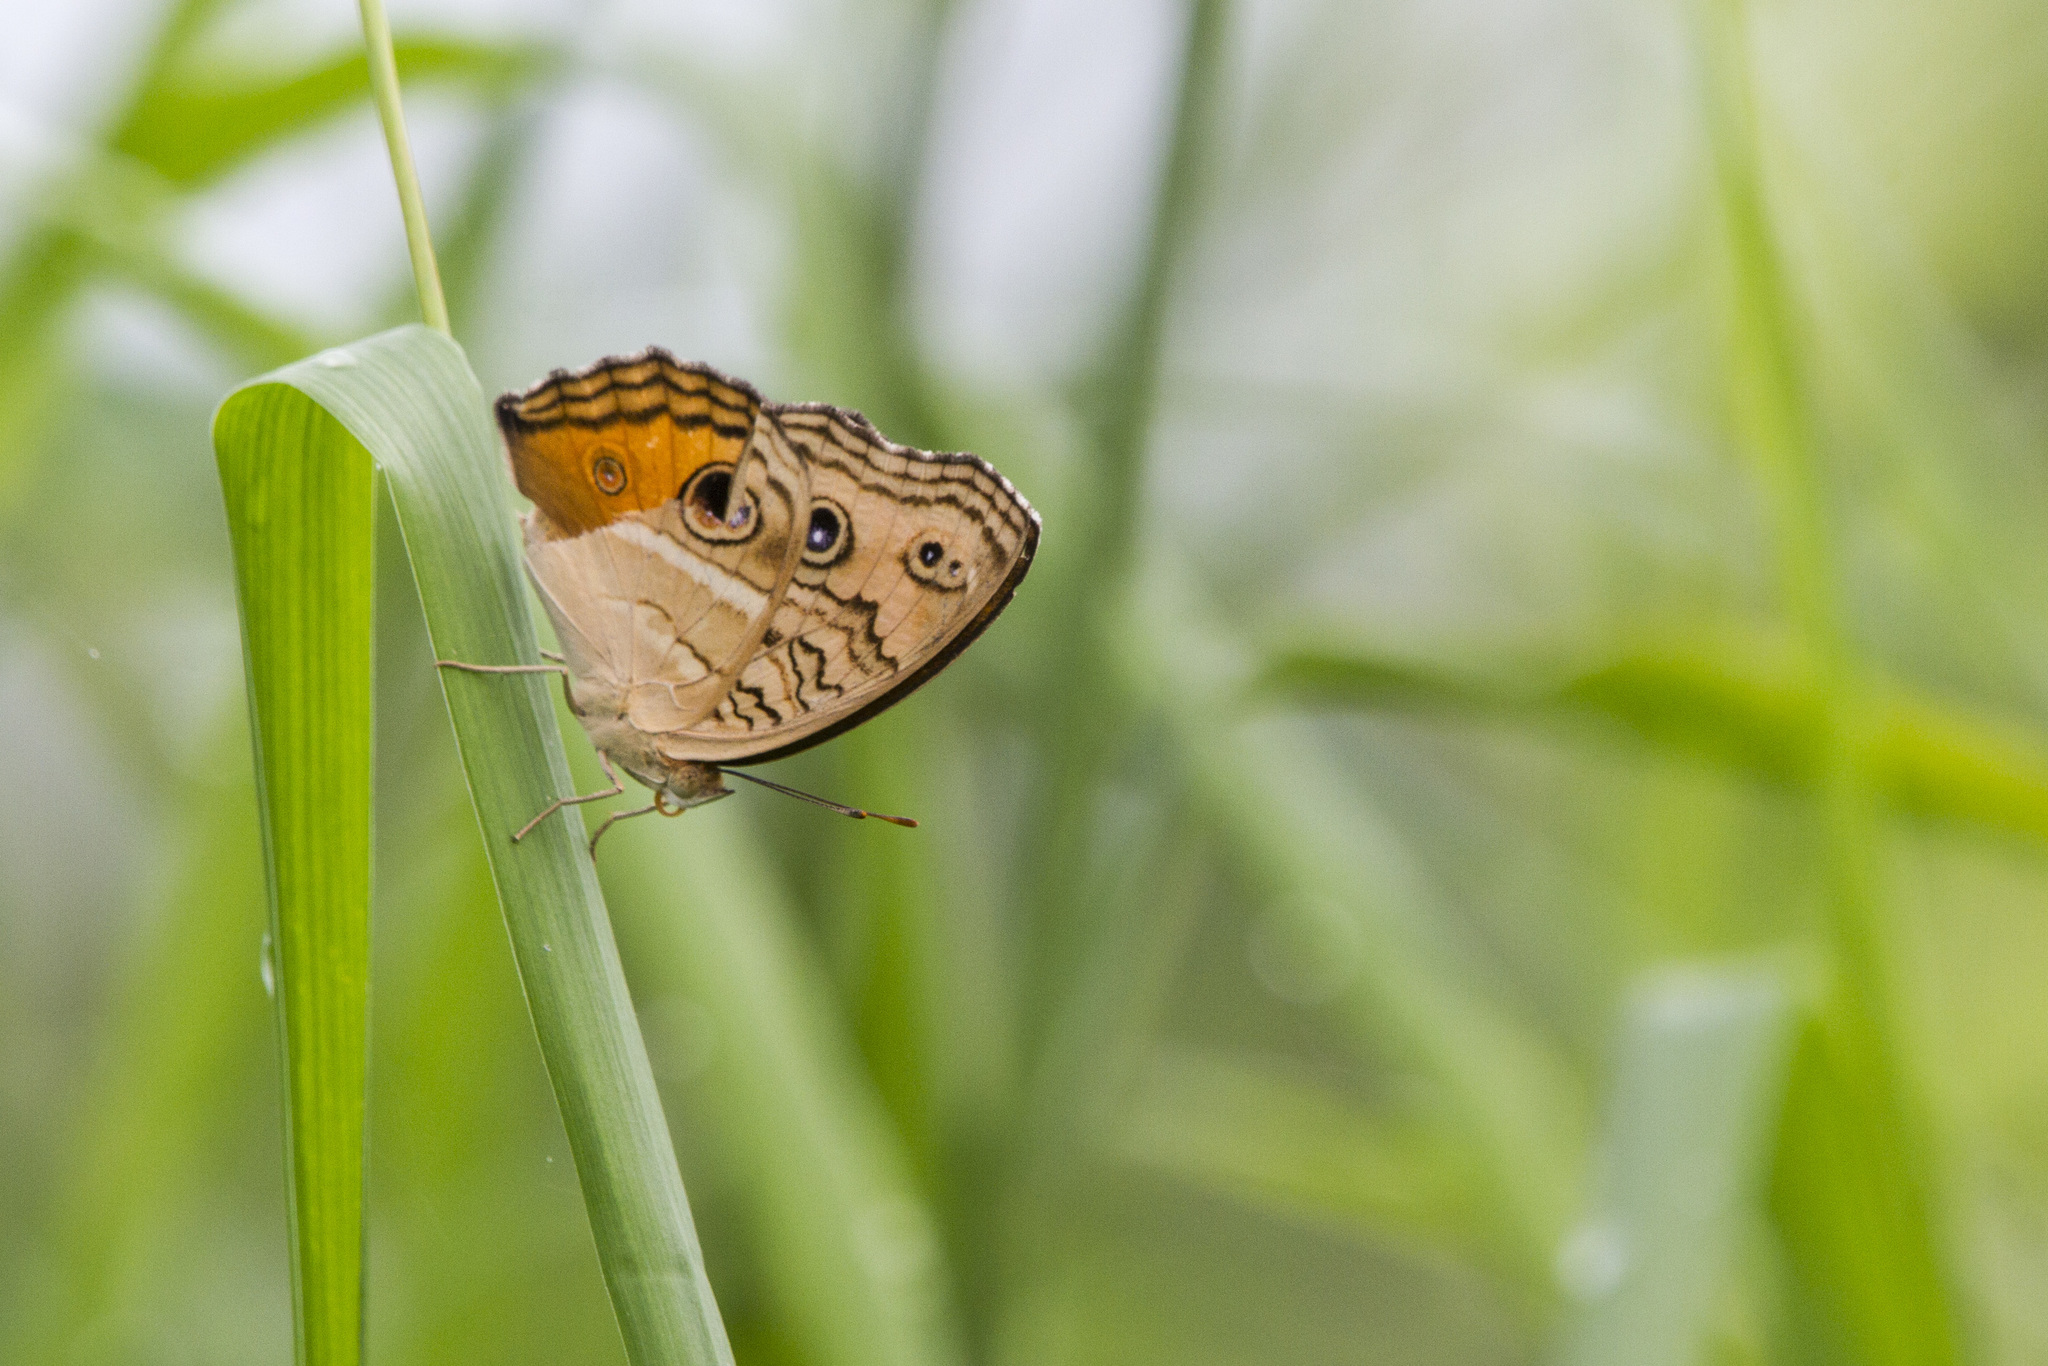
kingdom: Animalia
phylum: Arthropoda
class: Insecta
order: Lepidoptera
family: Nymphalidae
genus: Junonia
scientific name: Junonia almana
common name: Peacock pansy
